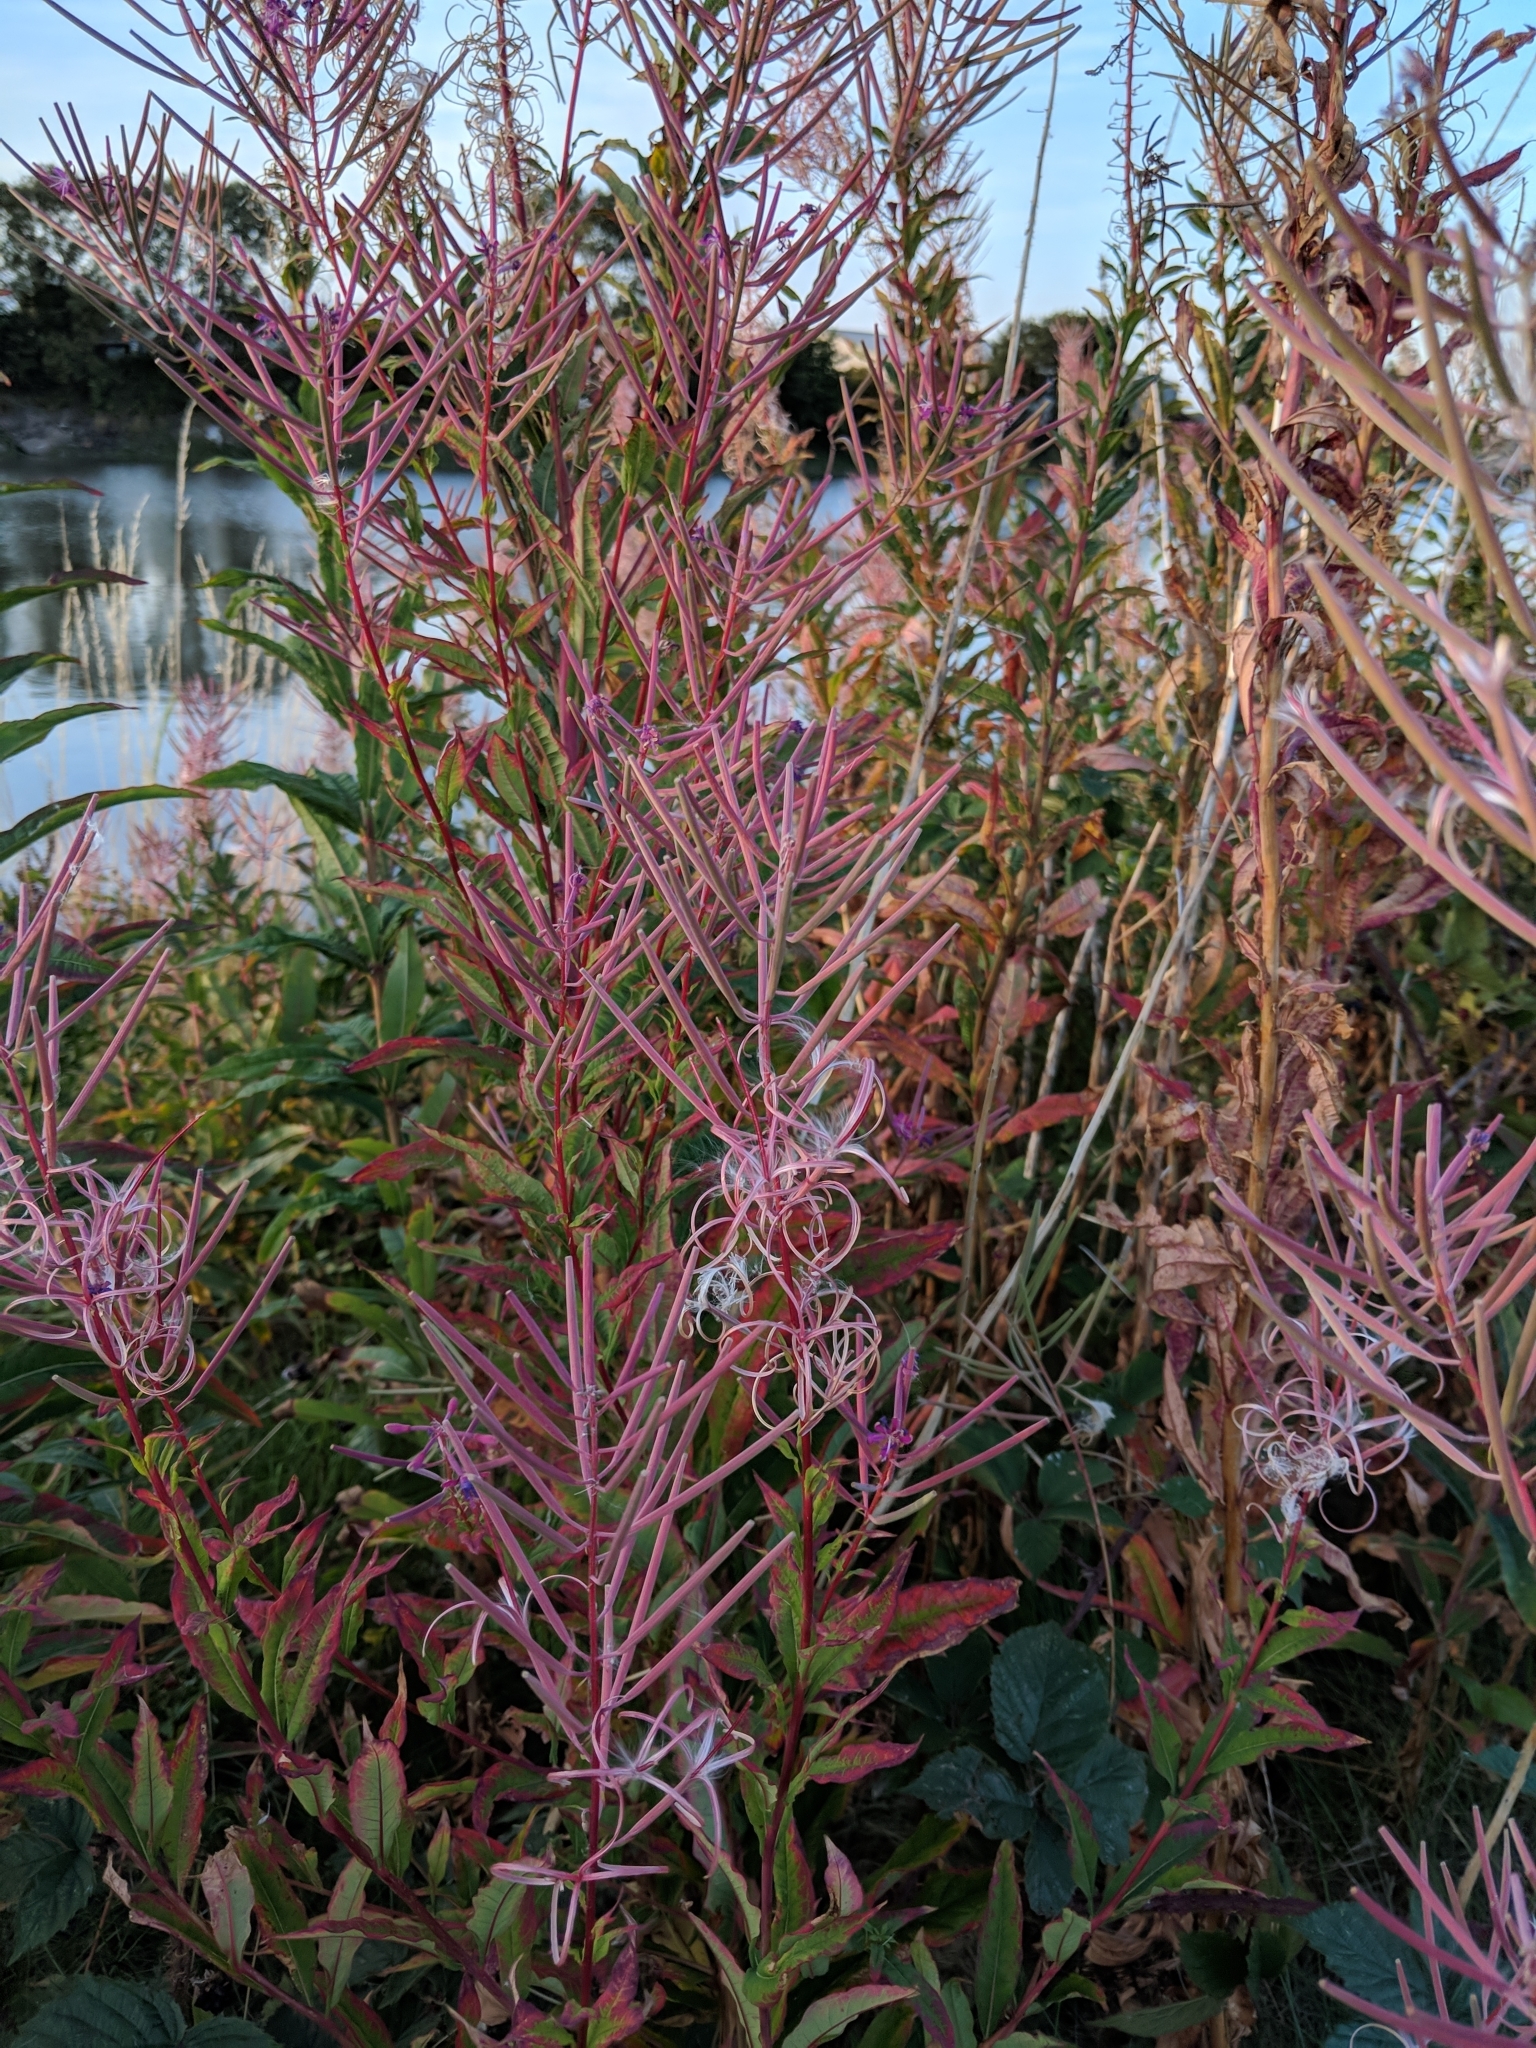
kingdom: Plantae
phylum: Tracheophyta
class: Magnoliopsida
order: Myrtales
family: Onagraceae
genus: Chamaenerion
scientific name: Chamaenerion angustifolium
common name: Fireweed
